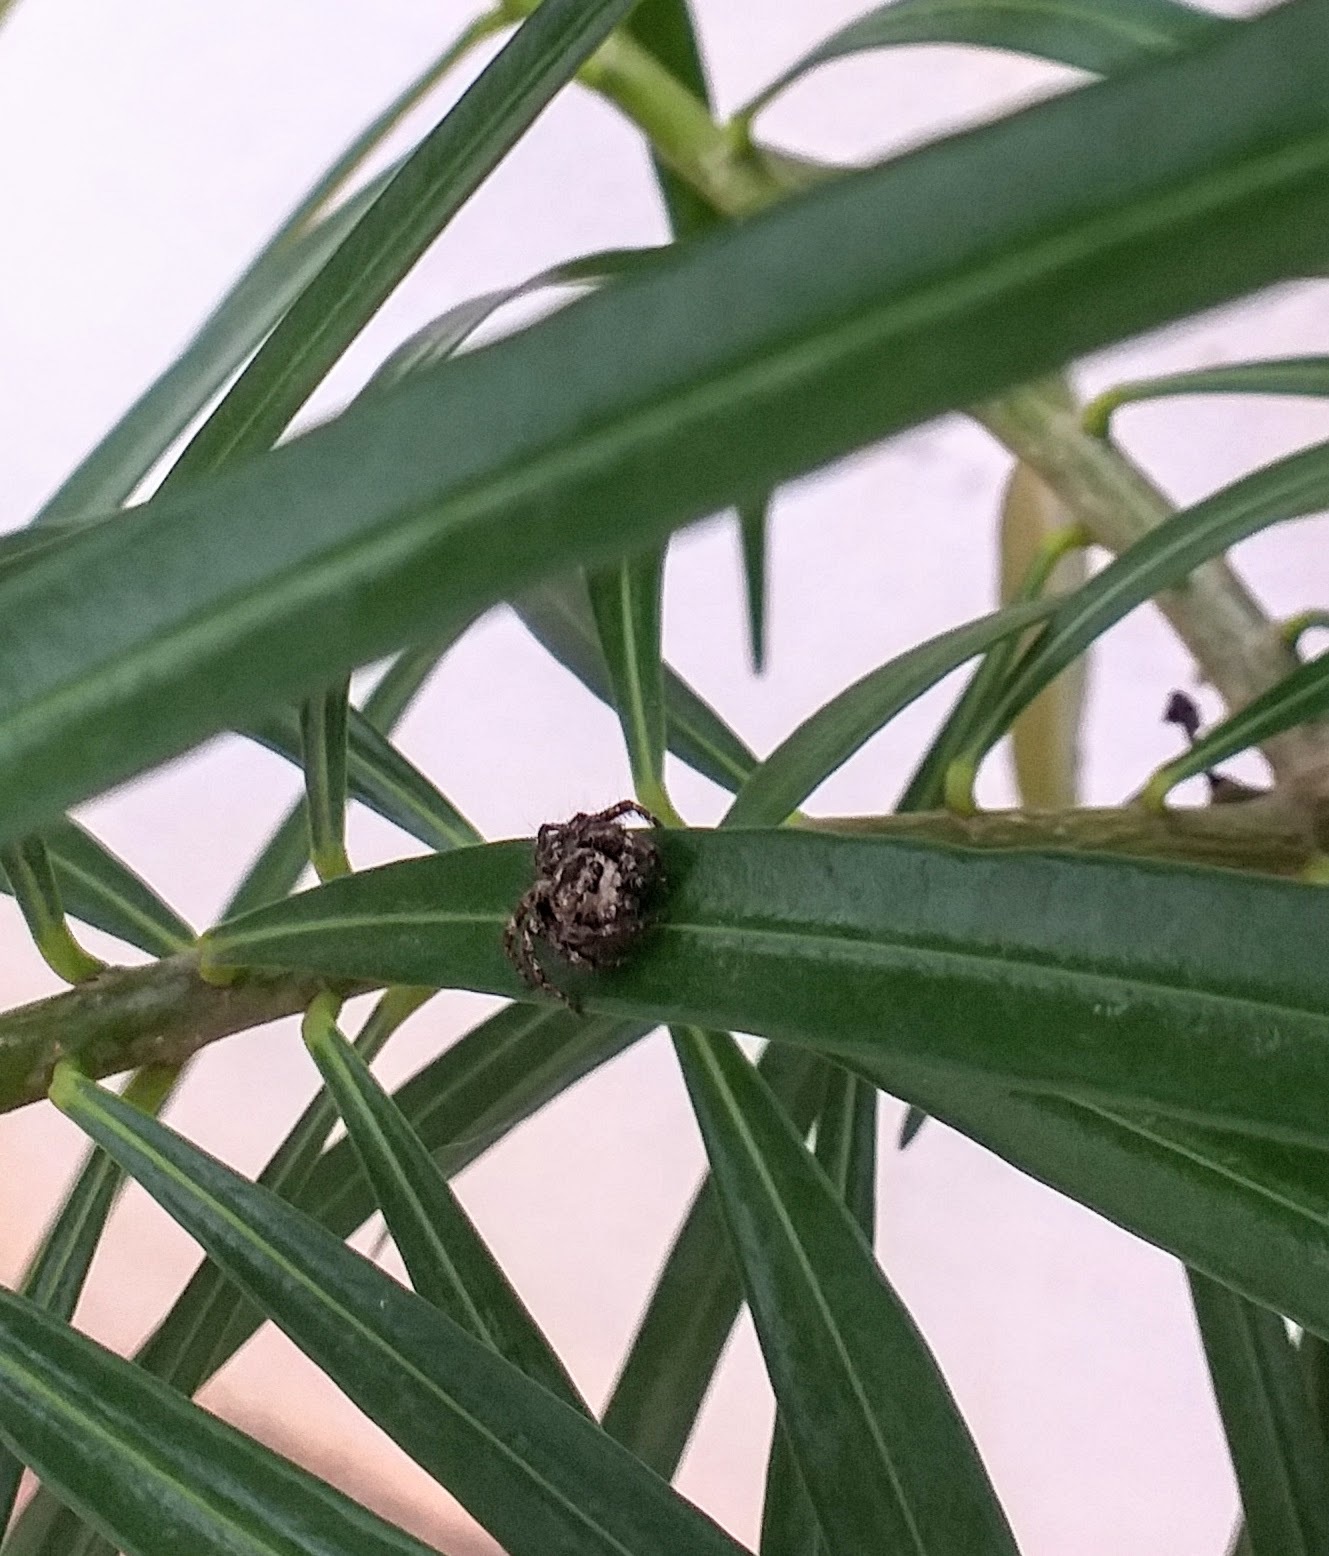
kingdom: Animalia
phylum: Arthropoda
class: Arachnida
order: Araneae
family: Salticidae
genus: Hyllus
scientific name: Hyllus semicupreus
